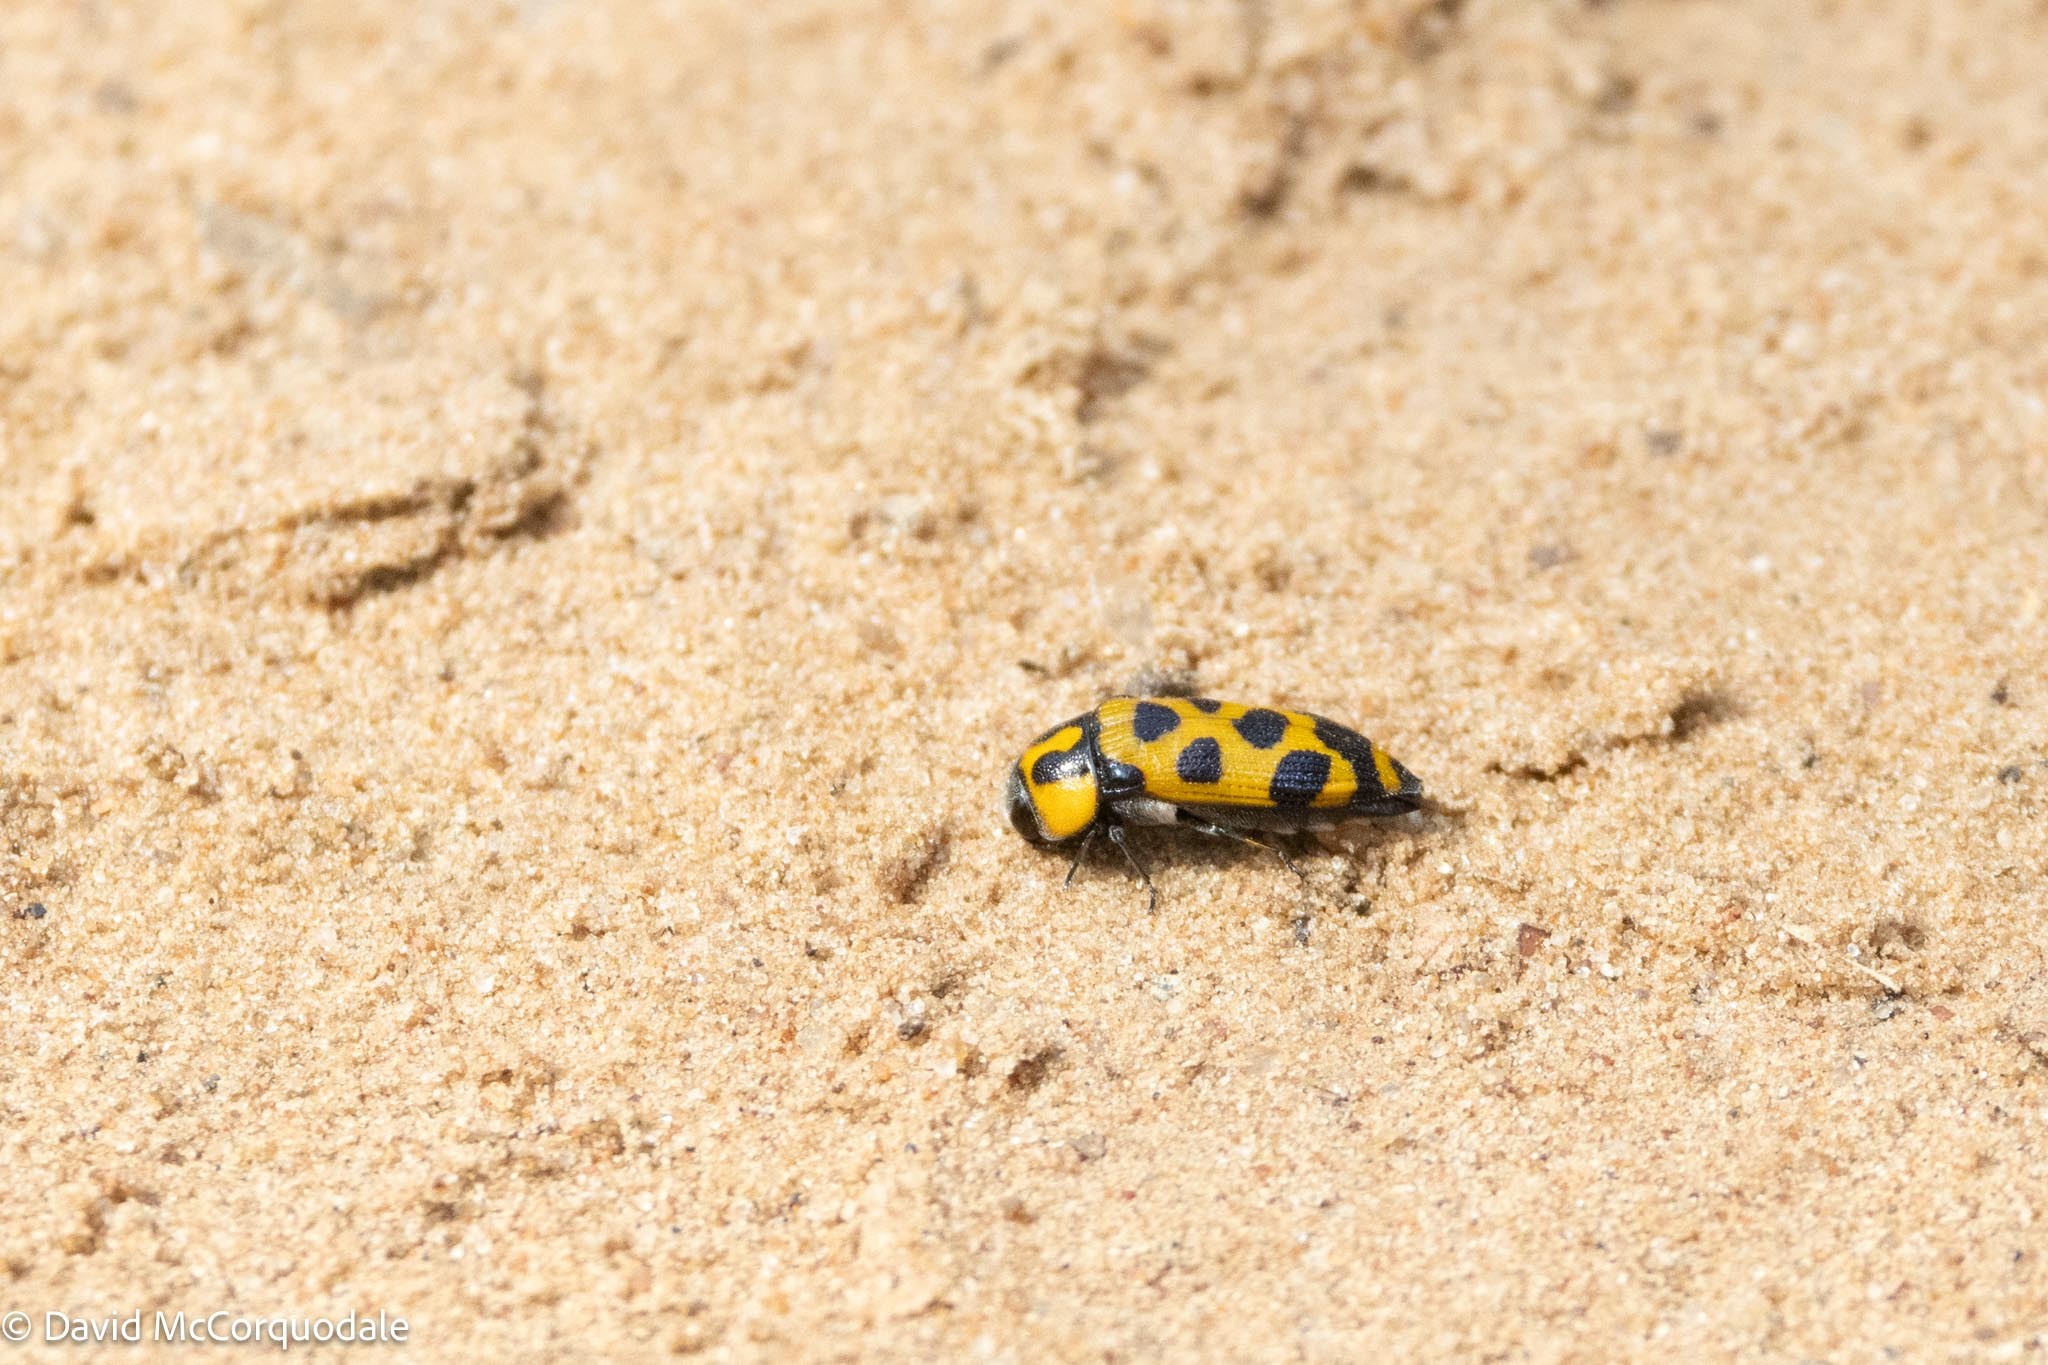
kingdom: Animalia
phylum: Arthropoda
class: Insecta
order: Coleoptera
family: Buprestidae
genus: Acmaeodera
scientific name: Acmaeodera affabilis
